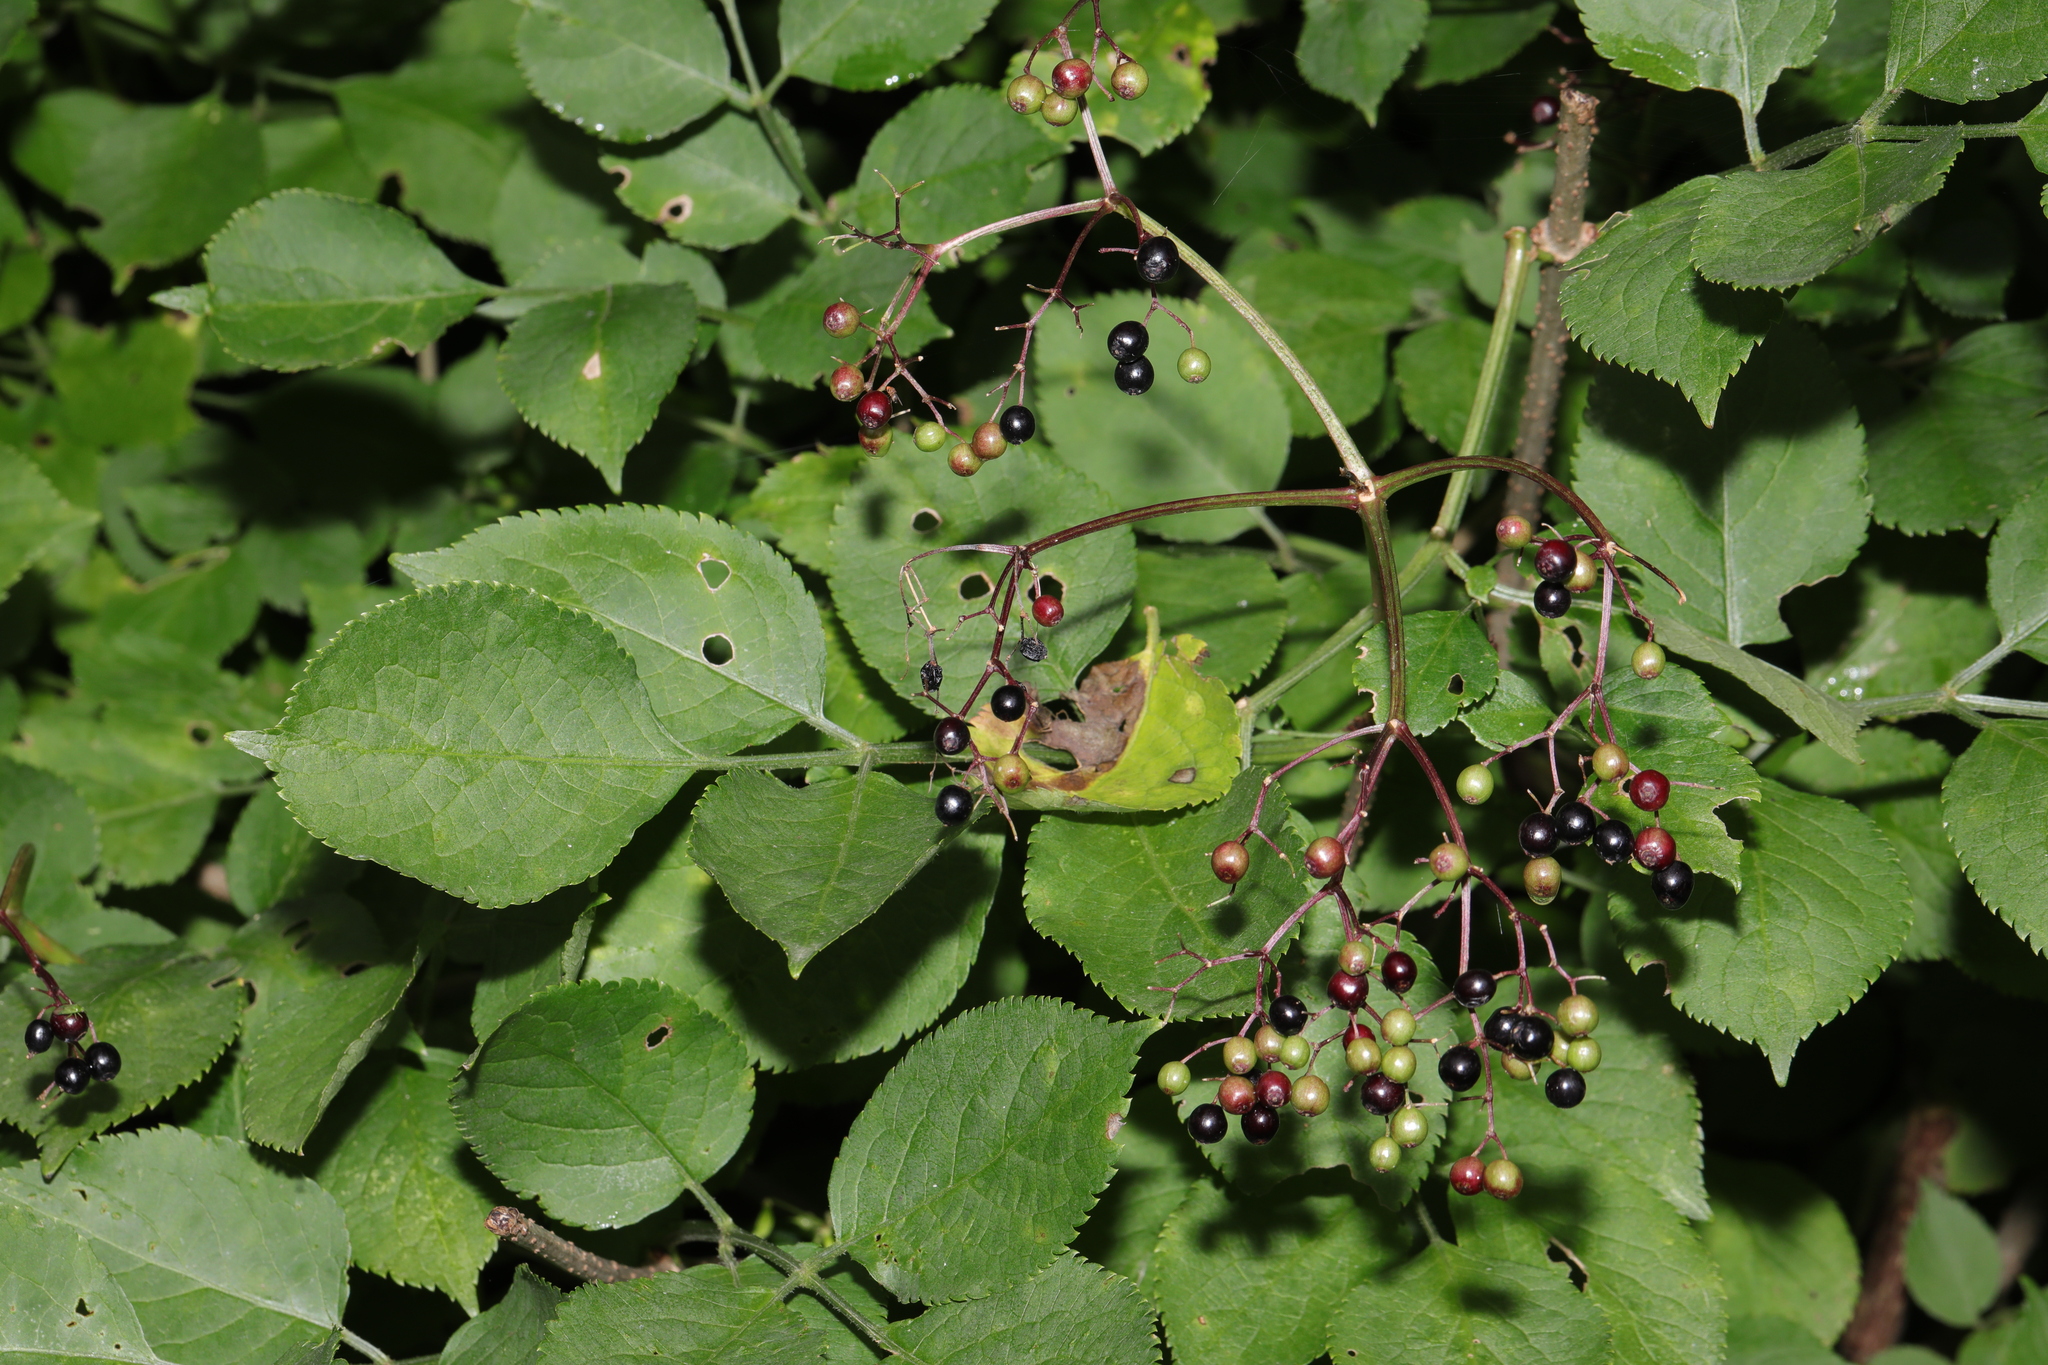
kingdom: Plantae
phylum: Tracheophyta
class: Magnoliopsida
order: Dipsacales
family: Viburnaceae
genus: Sambucus
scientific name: Sambucus nigra
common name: Elder
